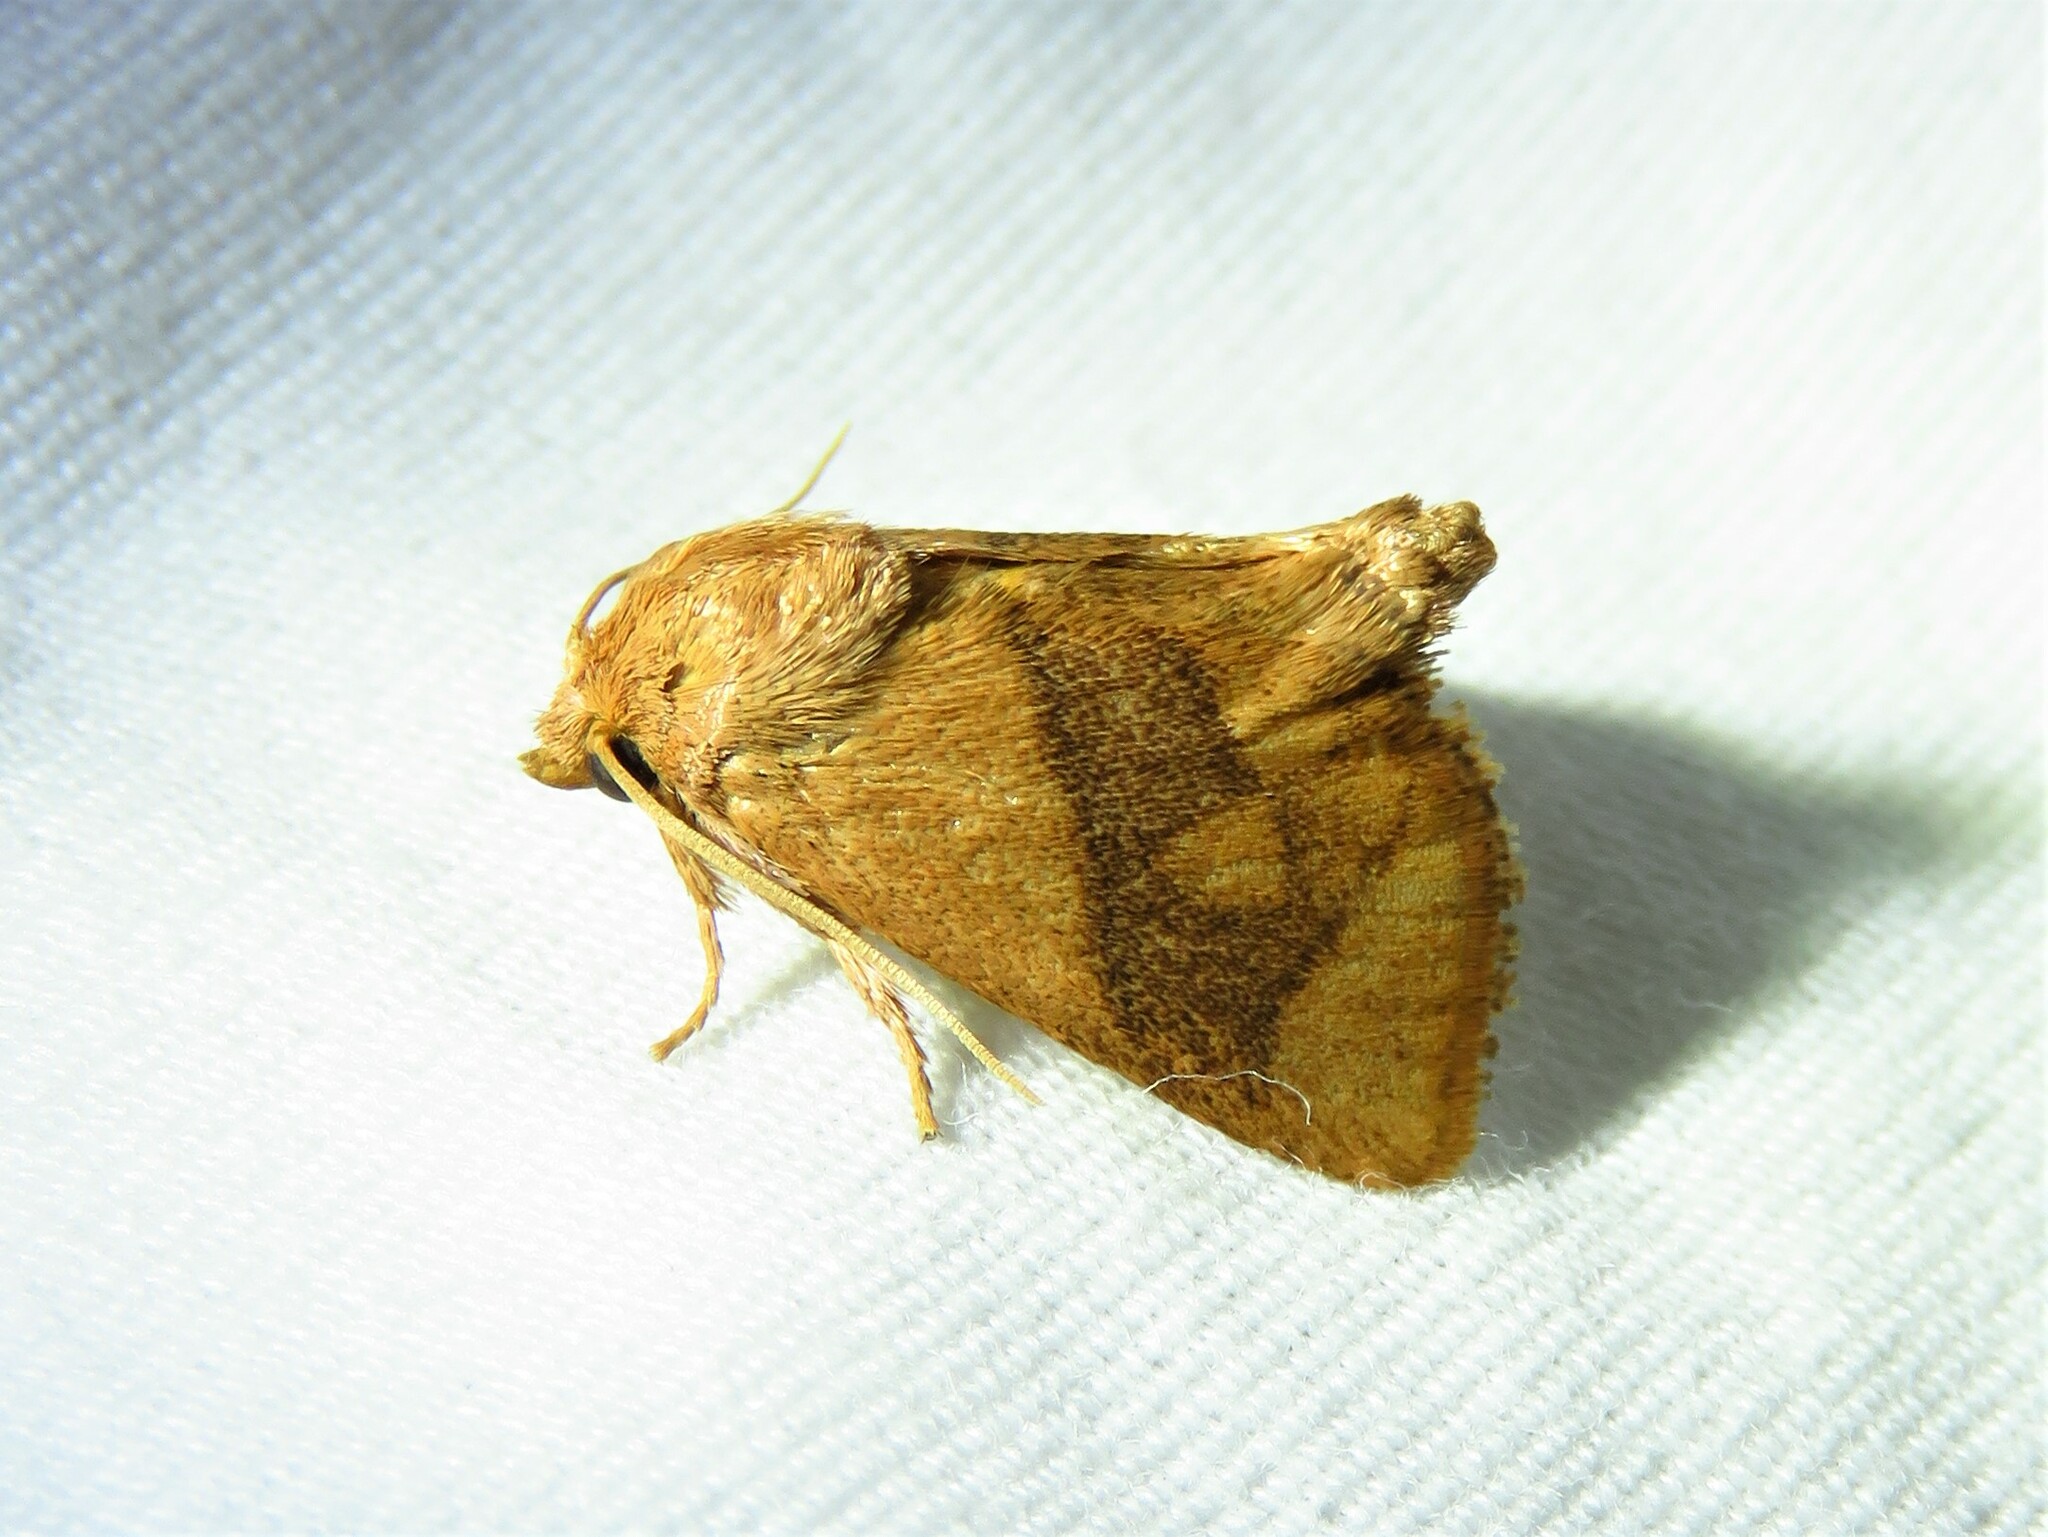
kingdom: Animalia
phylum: Arthropoda
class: Insecta
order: Lepidoptera
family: Limacodidae
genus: Apoda
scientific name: Apoda y-inversa
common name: Yellow-collared slug moth
